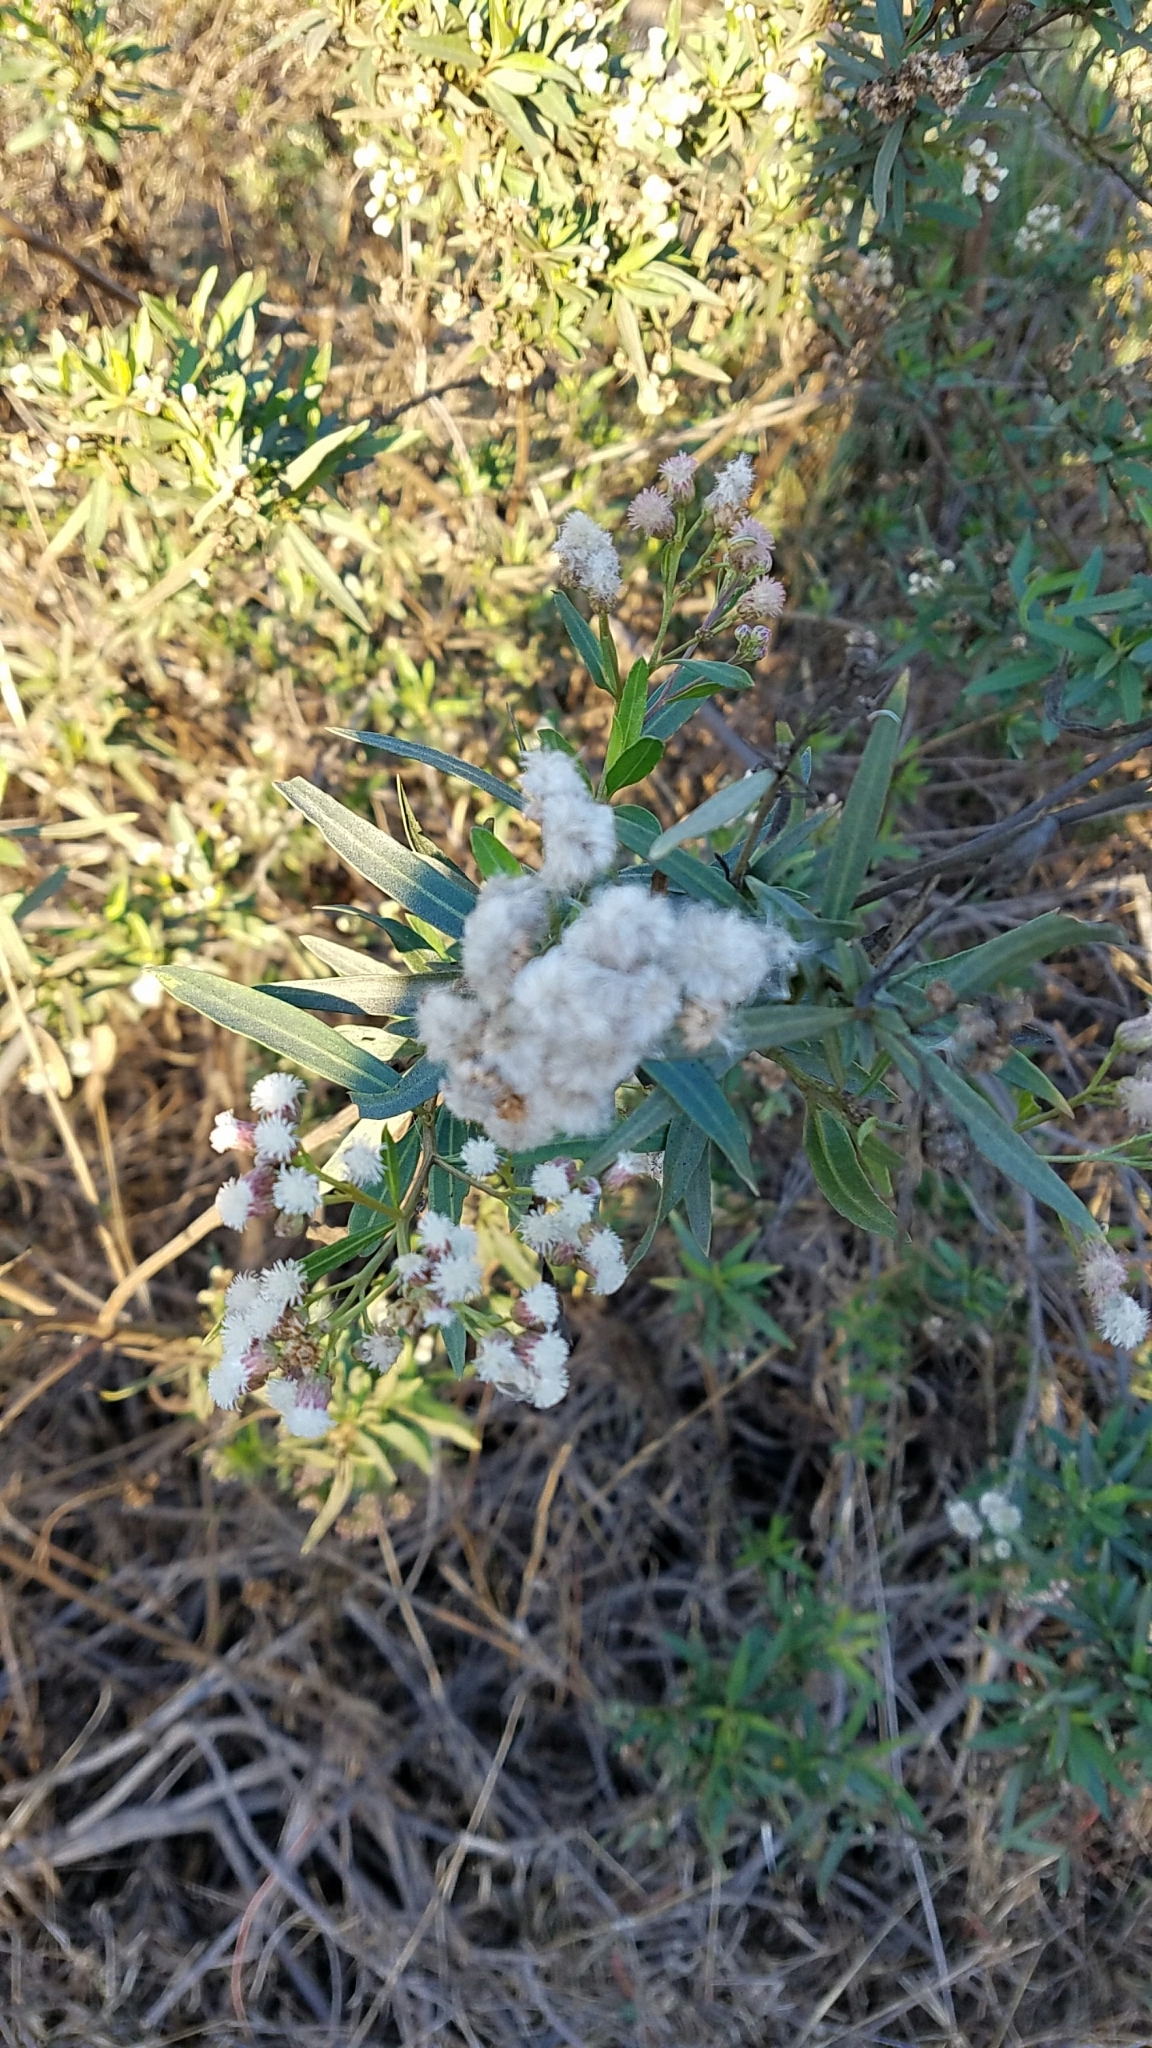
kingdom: Plantae
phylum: Tracheophyta
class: Magnoliopsida
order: Asterales
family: Asteraceae
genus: Baccharis
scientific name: Baccharis salicifolia
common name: Sticky baccharis
